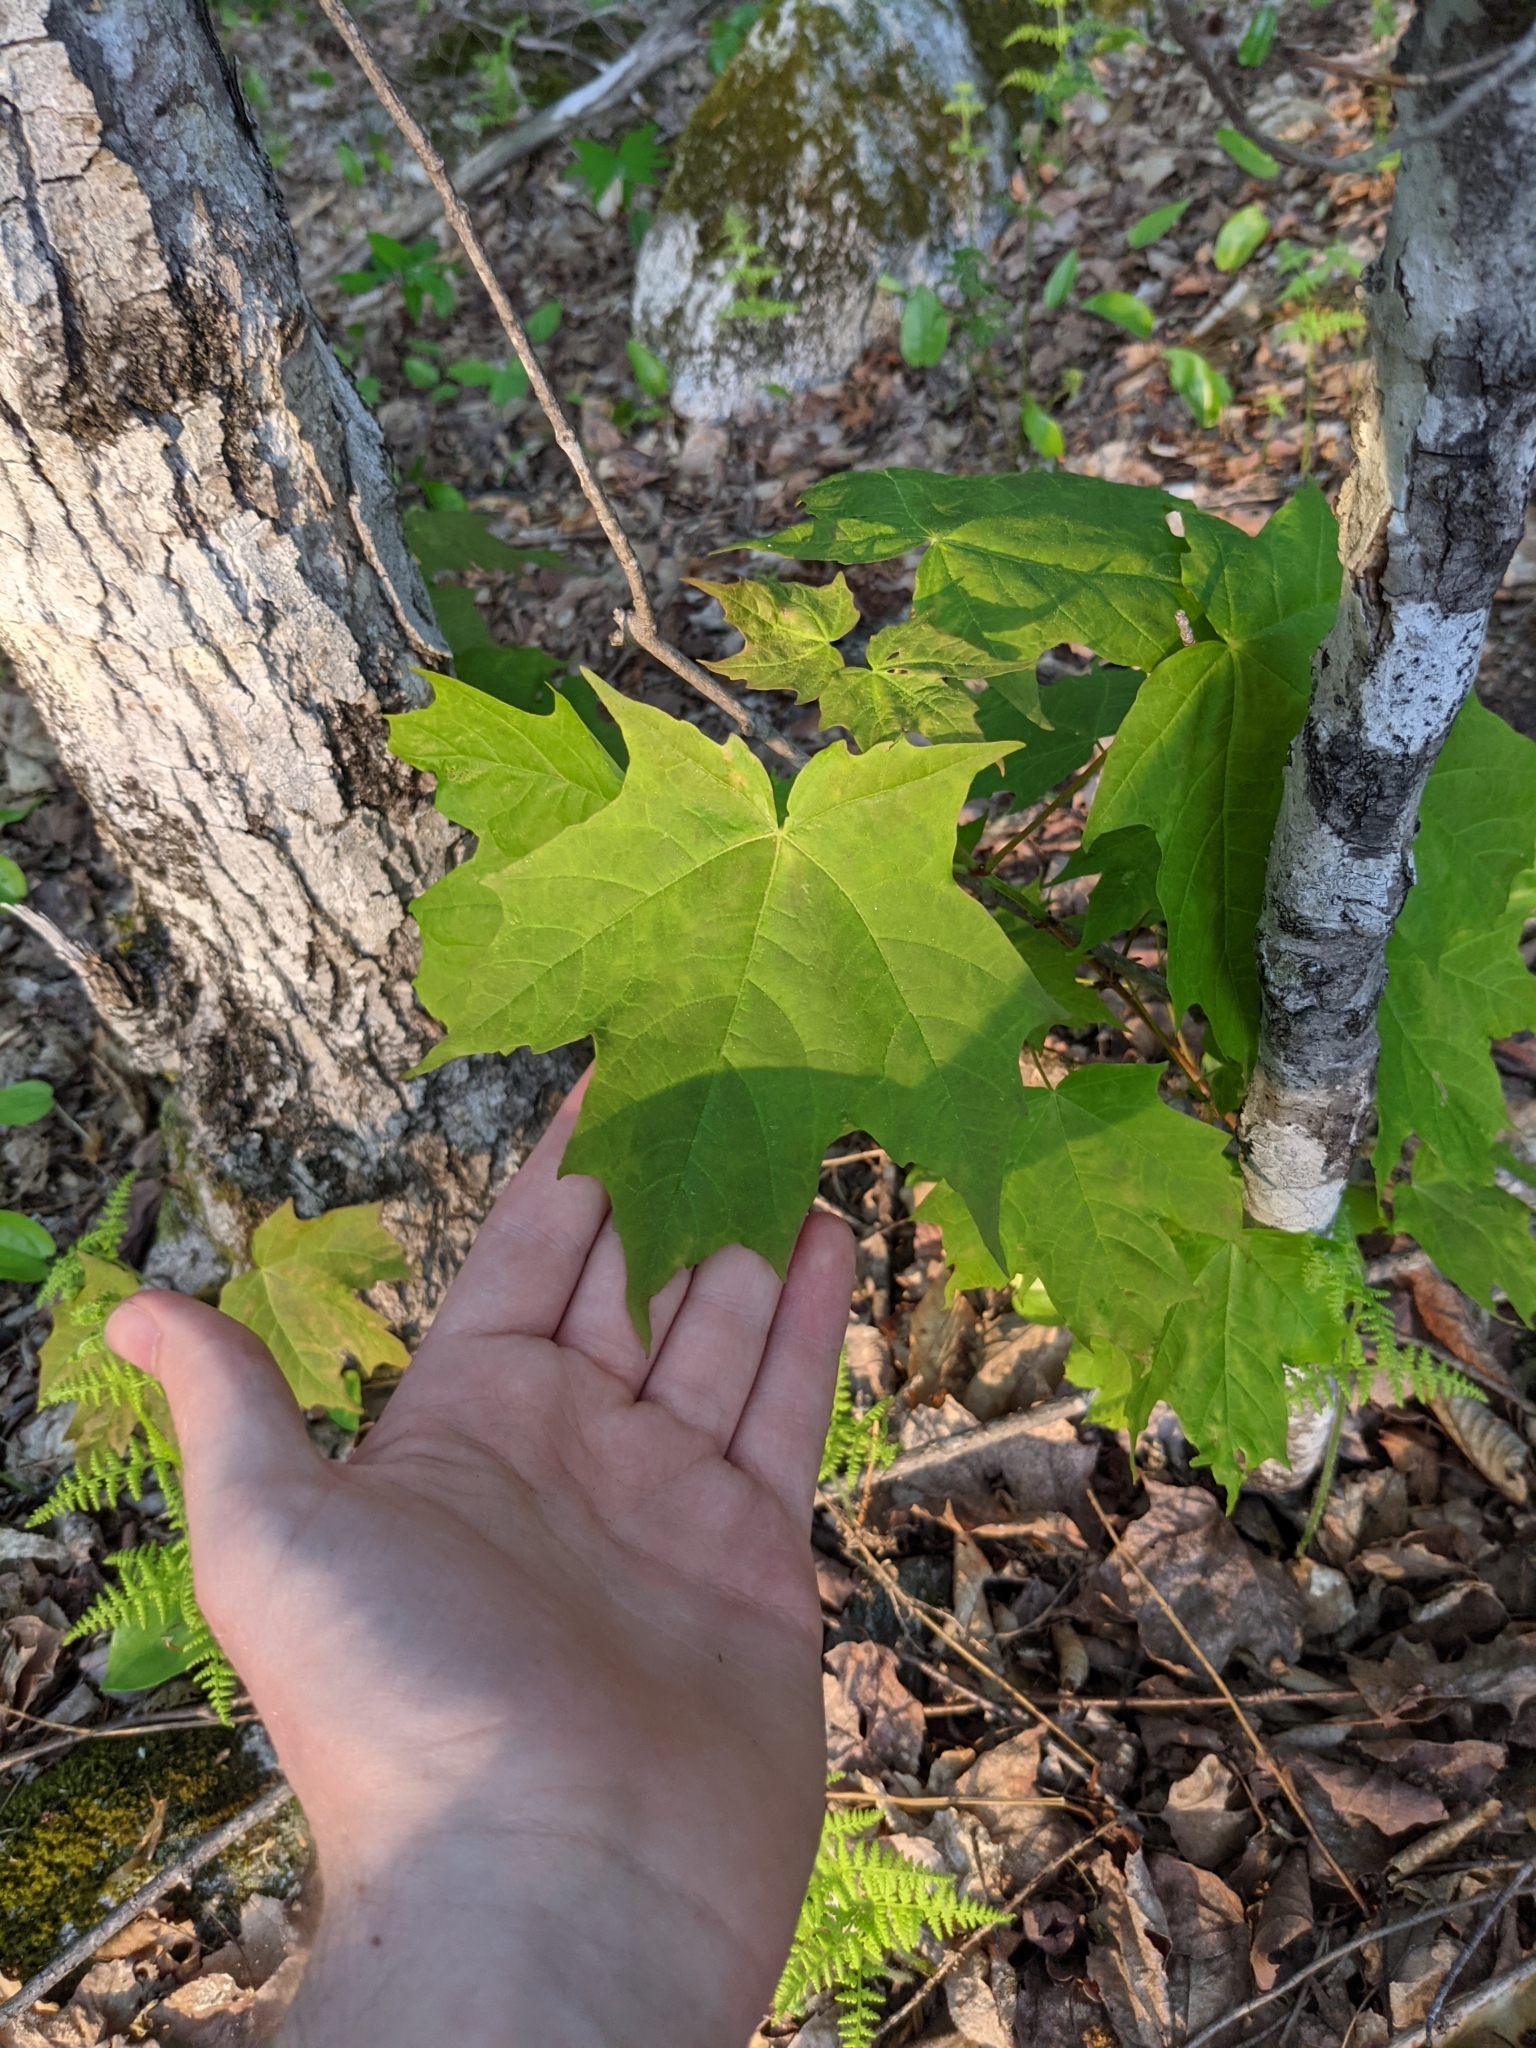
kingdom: Plantae
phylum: Tracheophyta
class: Magnoliopsida
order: Sapindales
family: Sapindaceae
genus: Acer
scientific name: Acer saccharum
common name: Sugar maple
